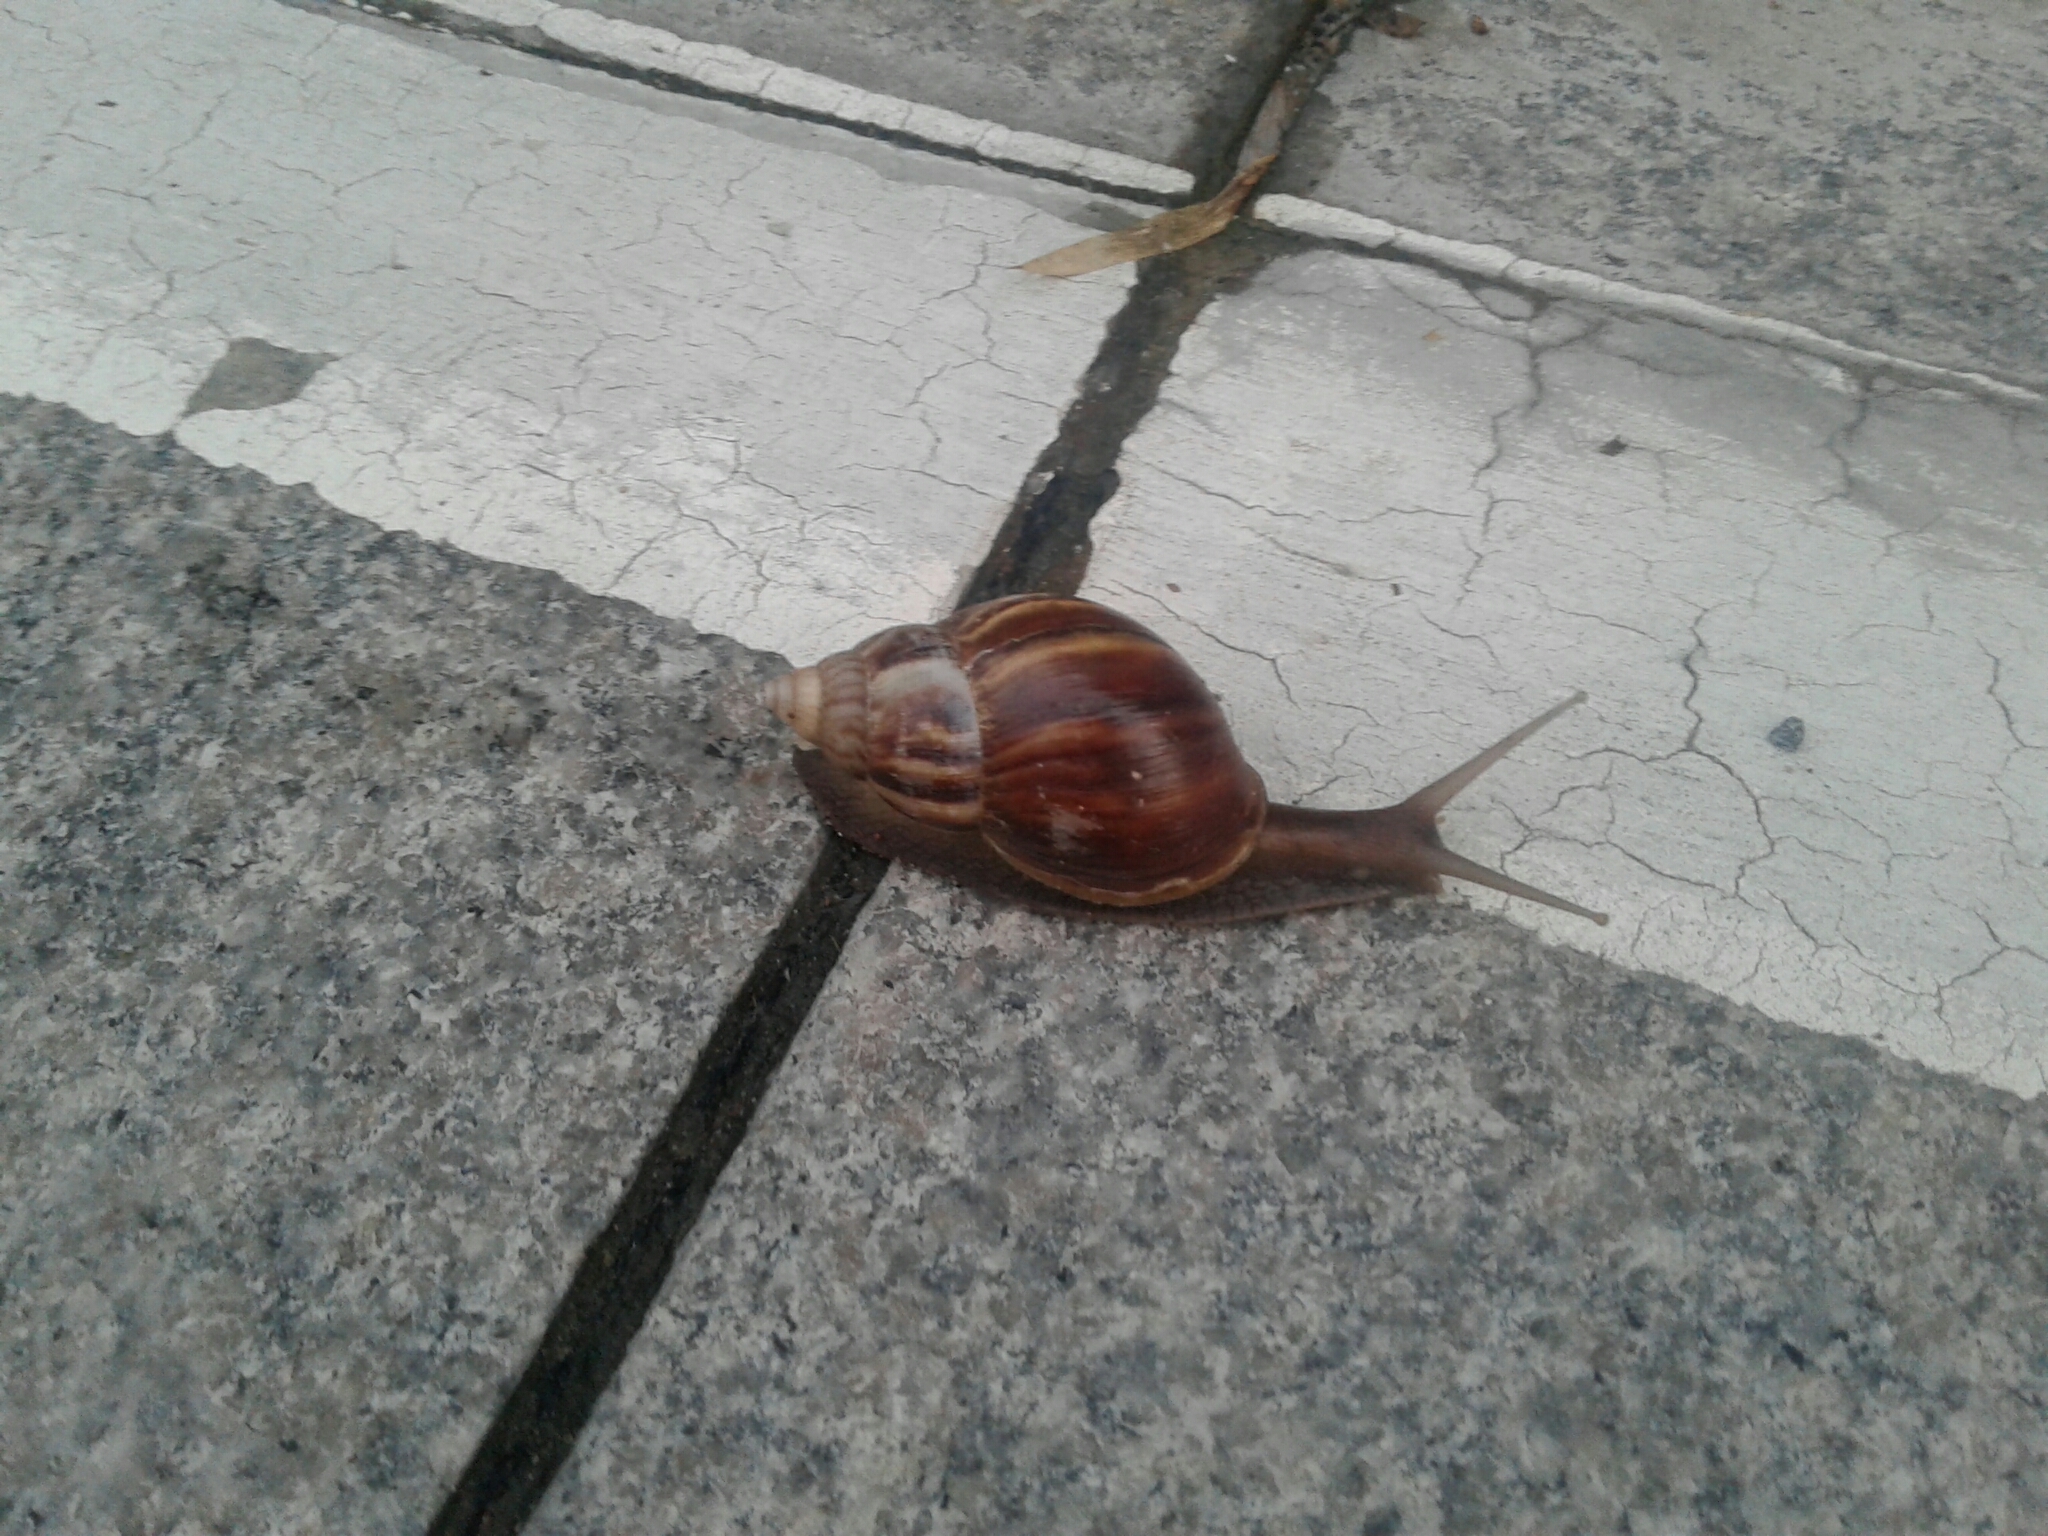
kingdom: Animalia
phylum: Mollusca
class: Gastropoda
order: Stylommatophora
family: Achatinidae
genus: Lissachatina
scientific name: Lissachatina fulica
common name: Giant african snail
